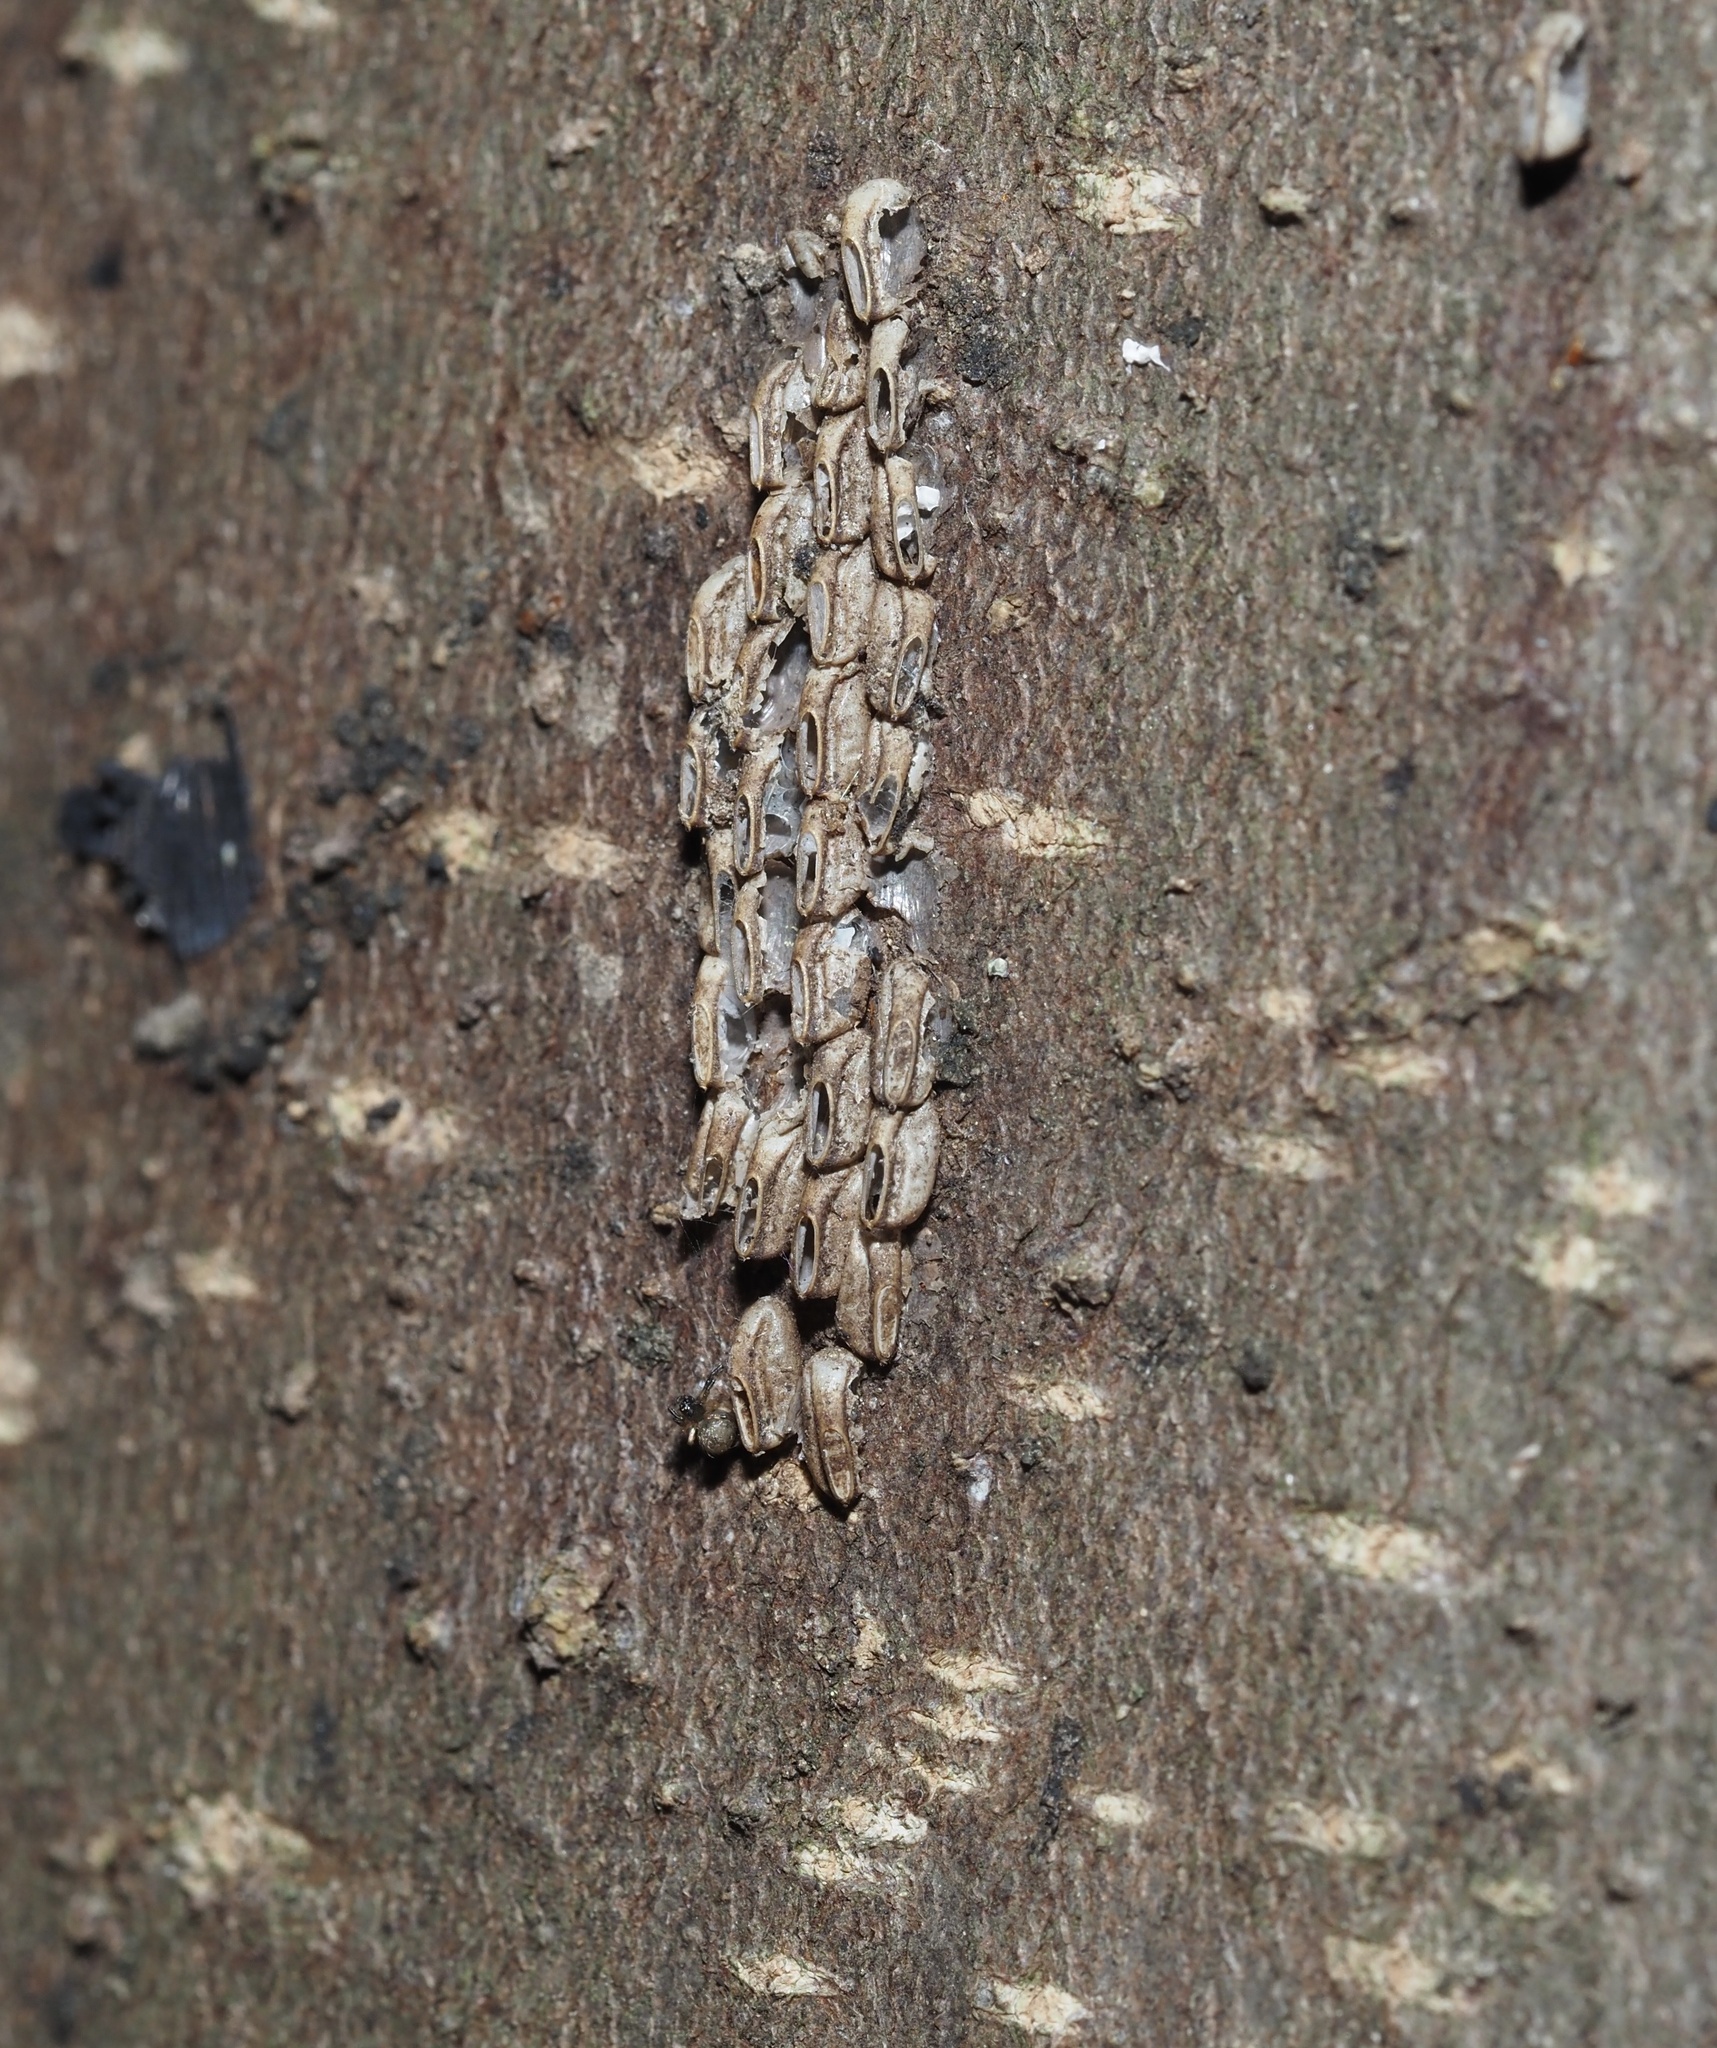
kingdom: Animalia
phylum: Arthropoda
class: Insecta
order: Hemiptera
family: Fulgoridae
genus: Lycorma
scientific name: Lycorma delicatula
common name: Spotted lanternfly
